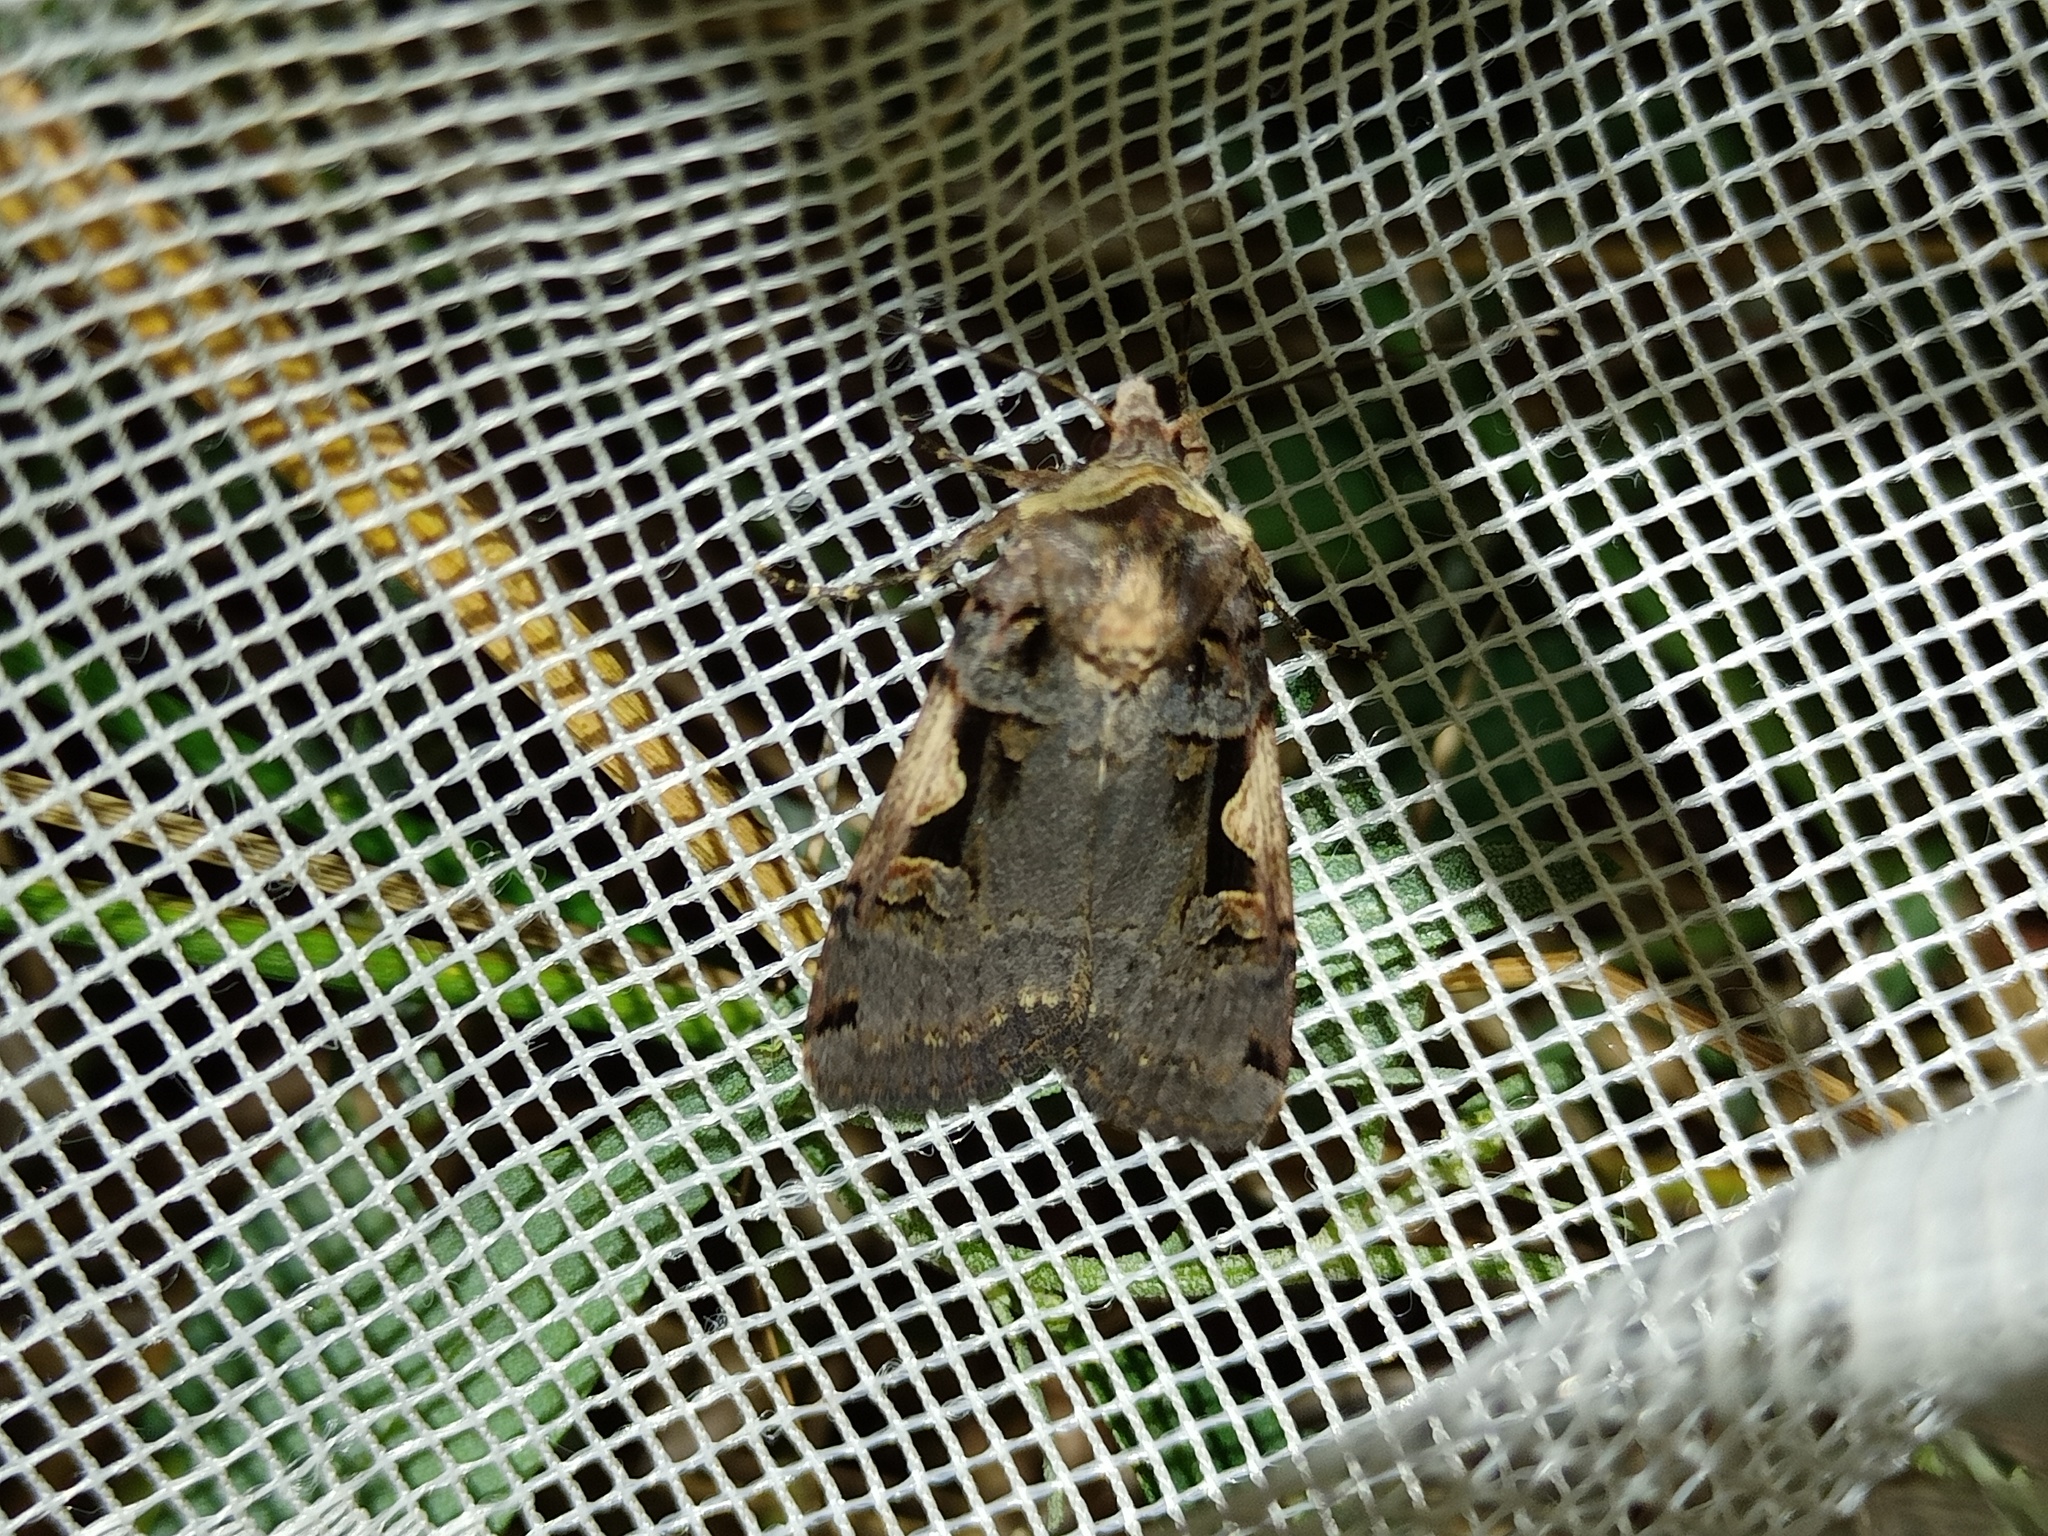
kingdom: Animalia
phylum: Arthropoda
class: Insecta
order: Lepidoptera
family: Noctuidae
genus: Xestia
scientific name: Xestia c-nigrum
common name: Setaceous hebrew character
